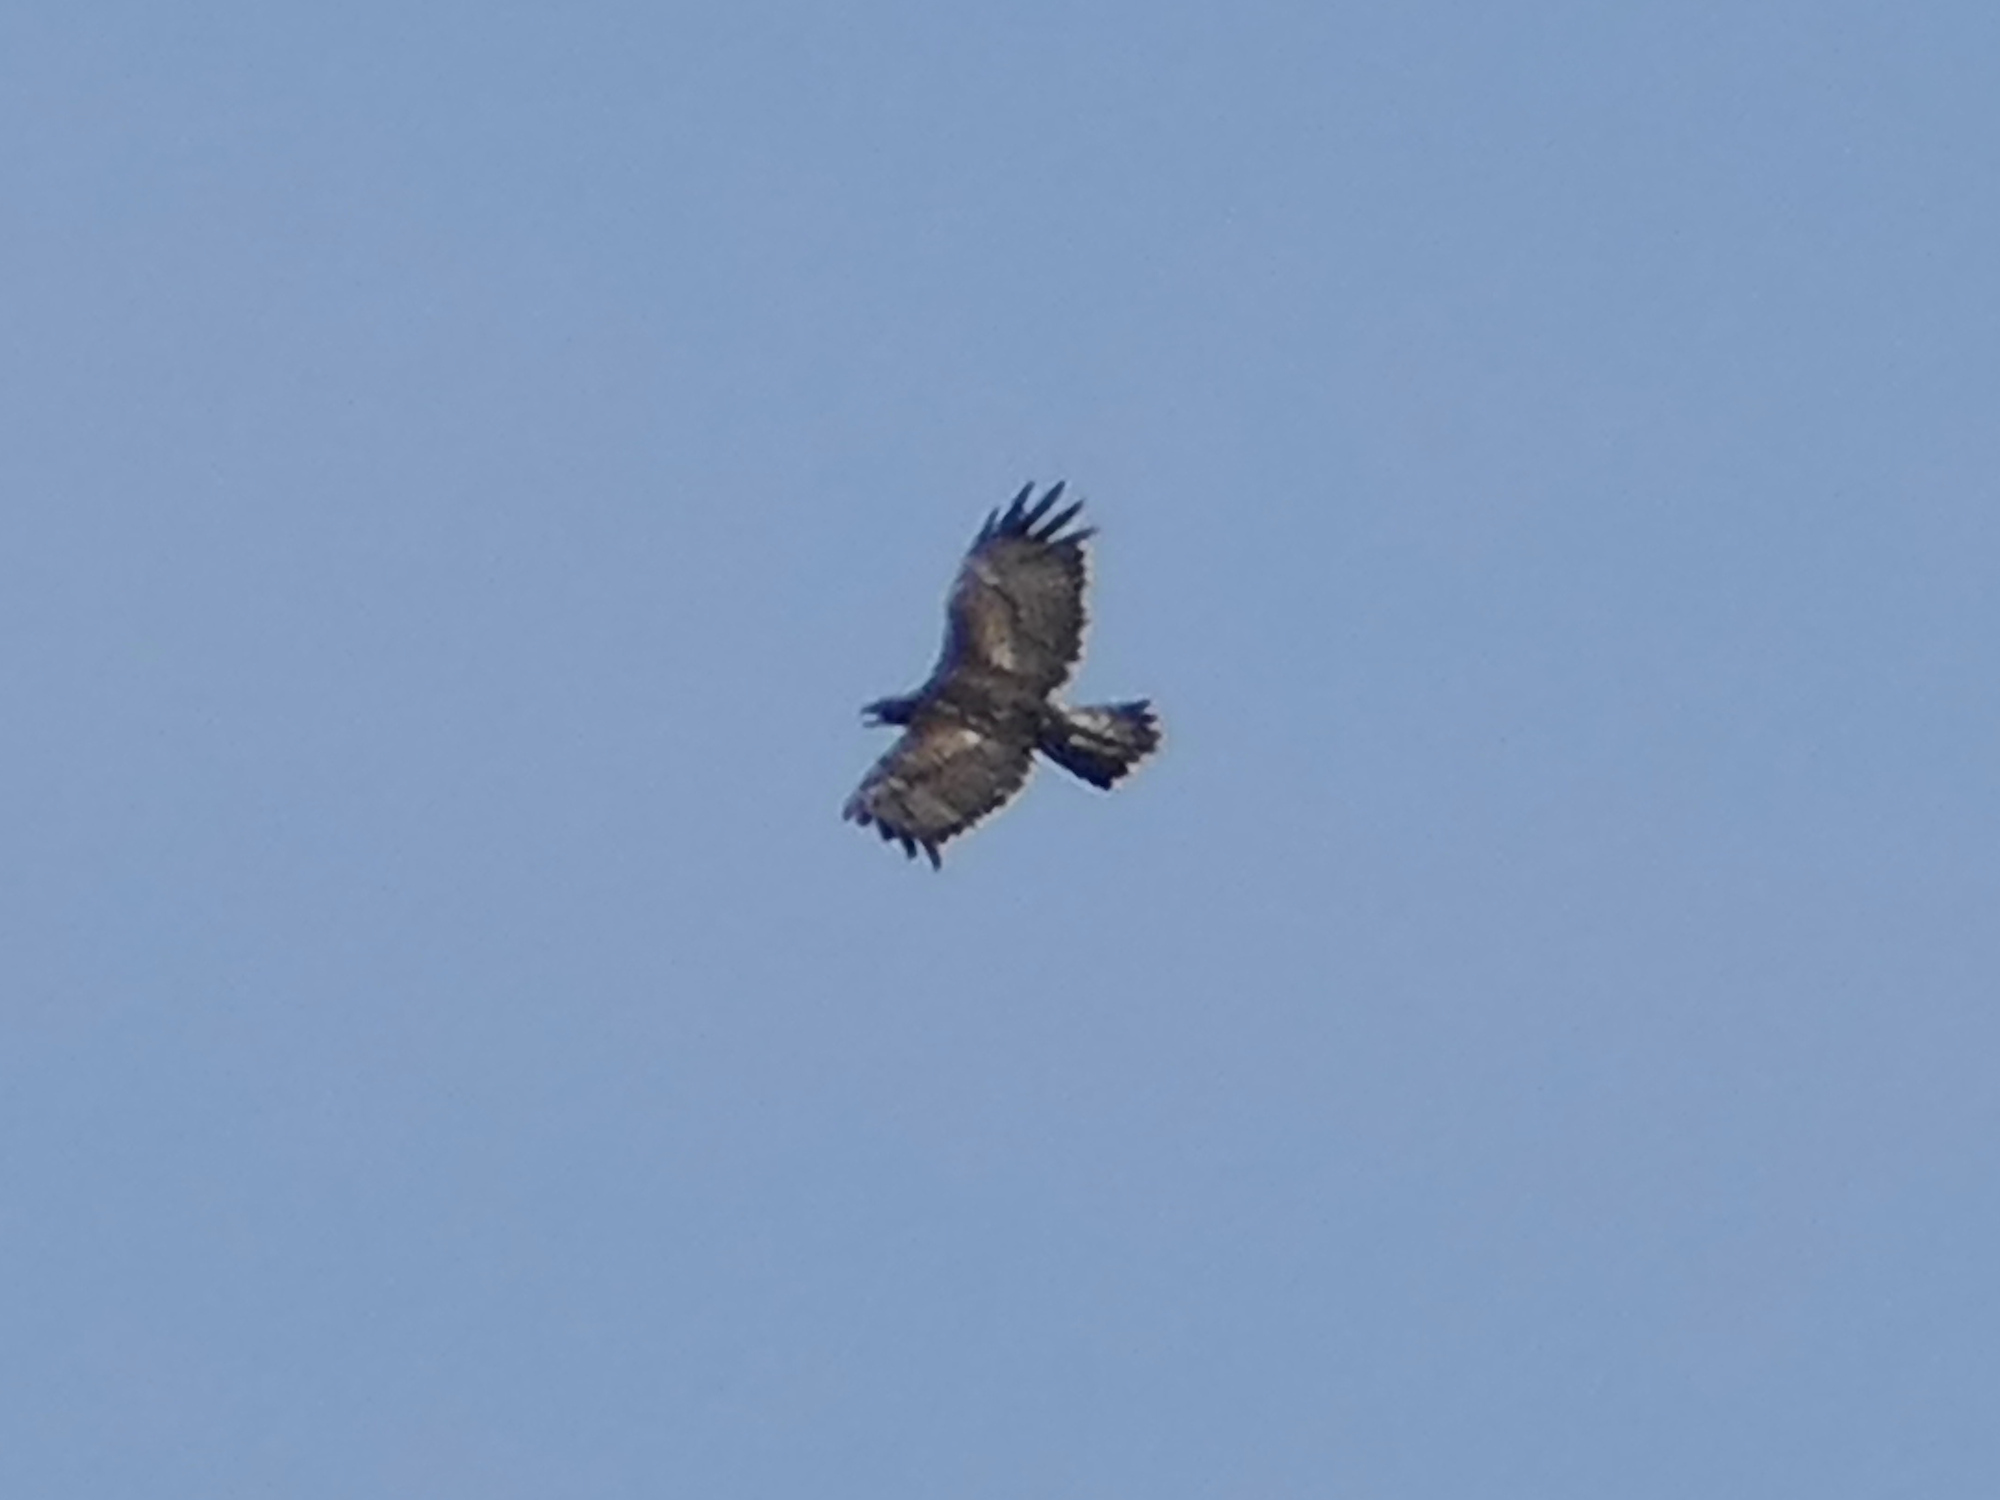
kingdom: Animalia
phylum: Chordata
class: Aves
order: Accipitriformes
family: Accipitridae
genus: Aquila
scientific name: Aquila chrysaetos
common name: Golden eagle
